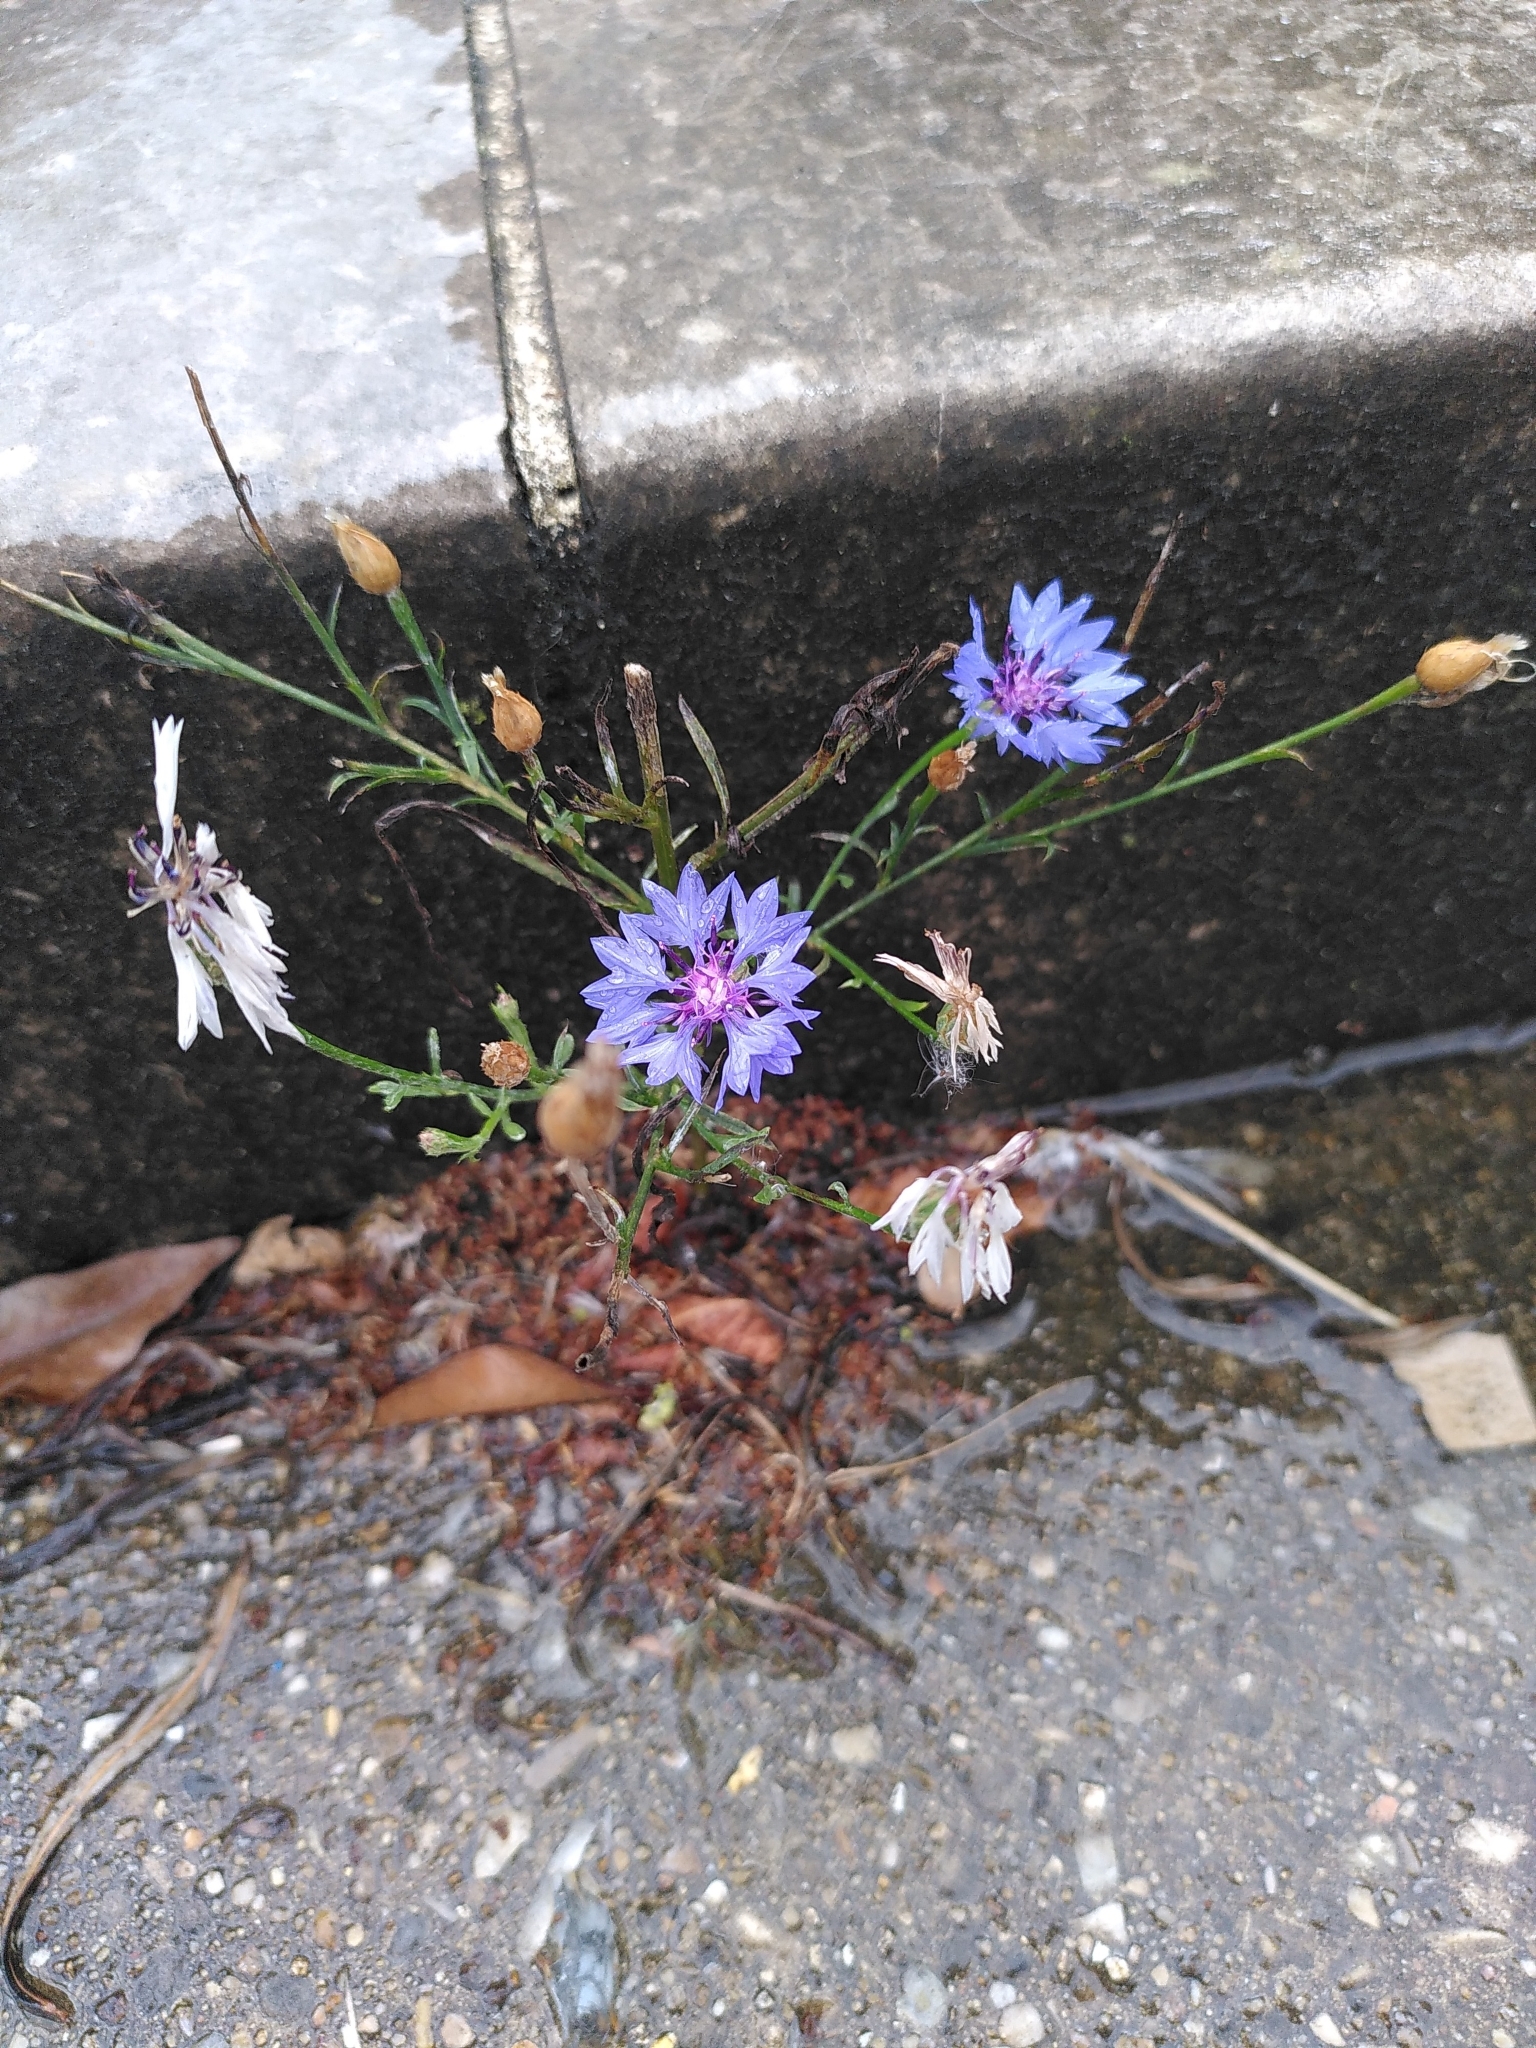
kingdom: Plantae
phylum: Tracheophyta
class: Magnoliopsida
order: Asterales
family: Asteraceae
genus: Centaurea
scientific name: Centaurea cyanus
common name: Cornflower
